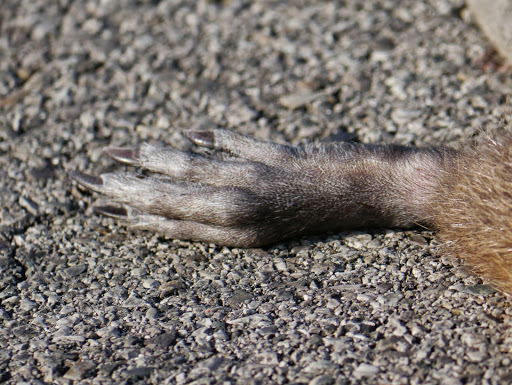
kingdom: Animalia
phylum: Chordata
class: Mammalia
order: Rodentia
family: Myocastoridae
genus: Myocastor
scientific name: Myocastor coypus
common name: Coypu
